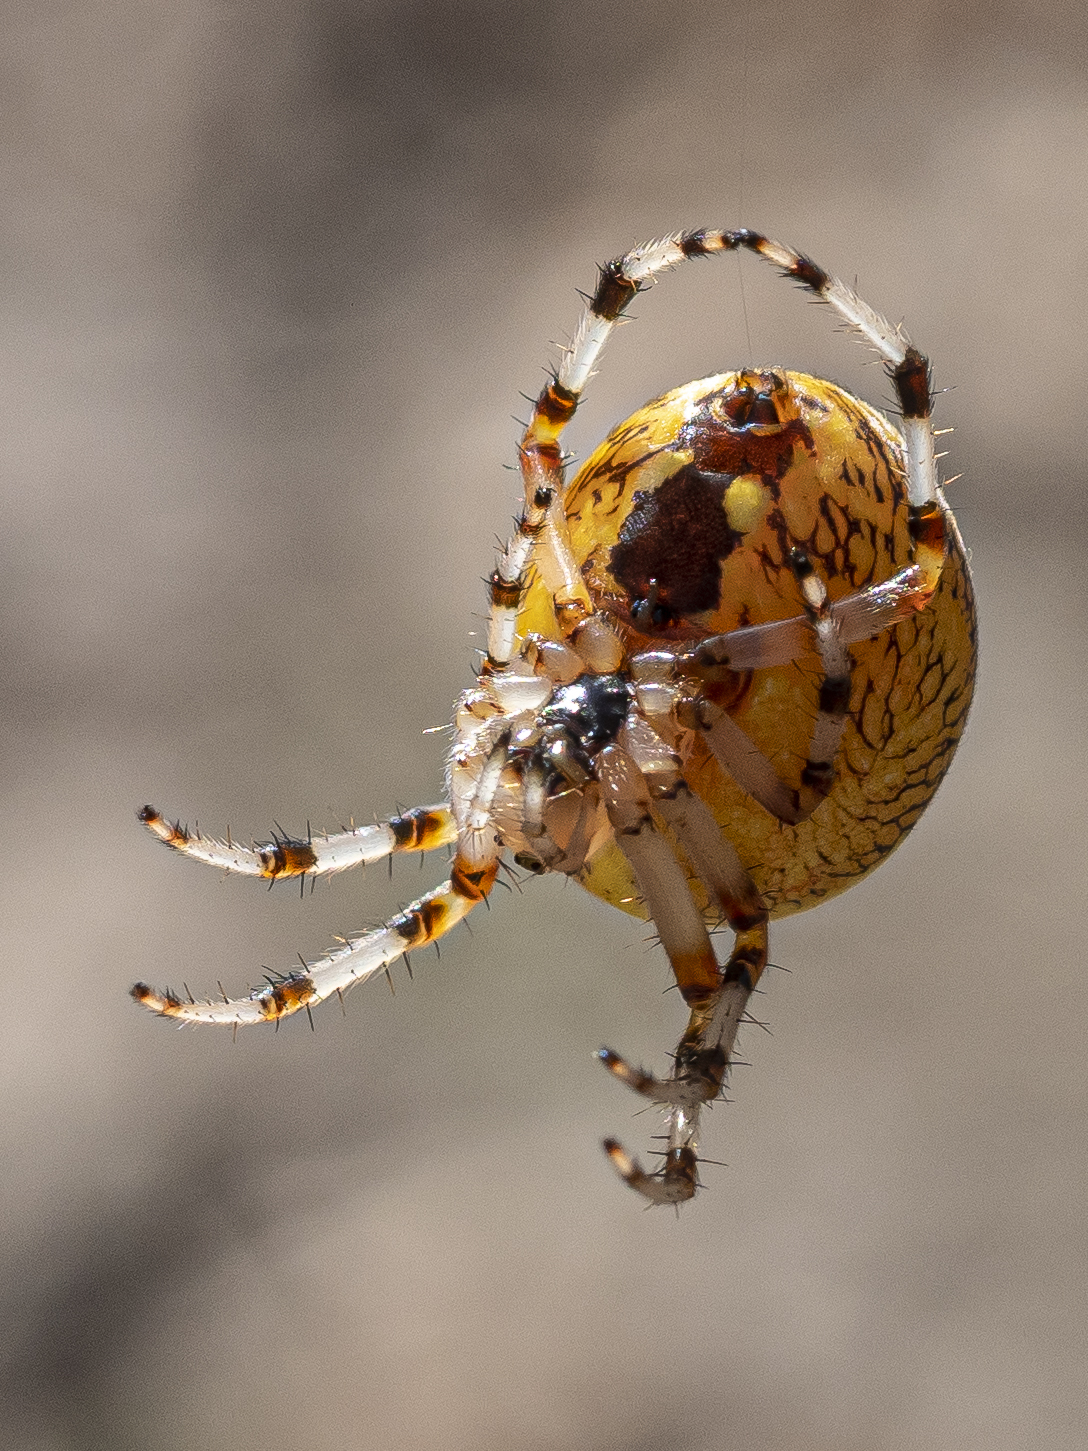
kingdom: Animalia
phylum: Arthropoda
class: Arachnida
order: Araneae
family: Araneidae
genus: Araneus
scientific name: Araneus marmoreus
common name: Marbled orbweaver
